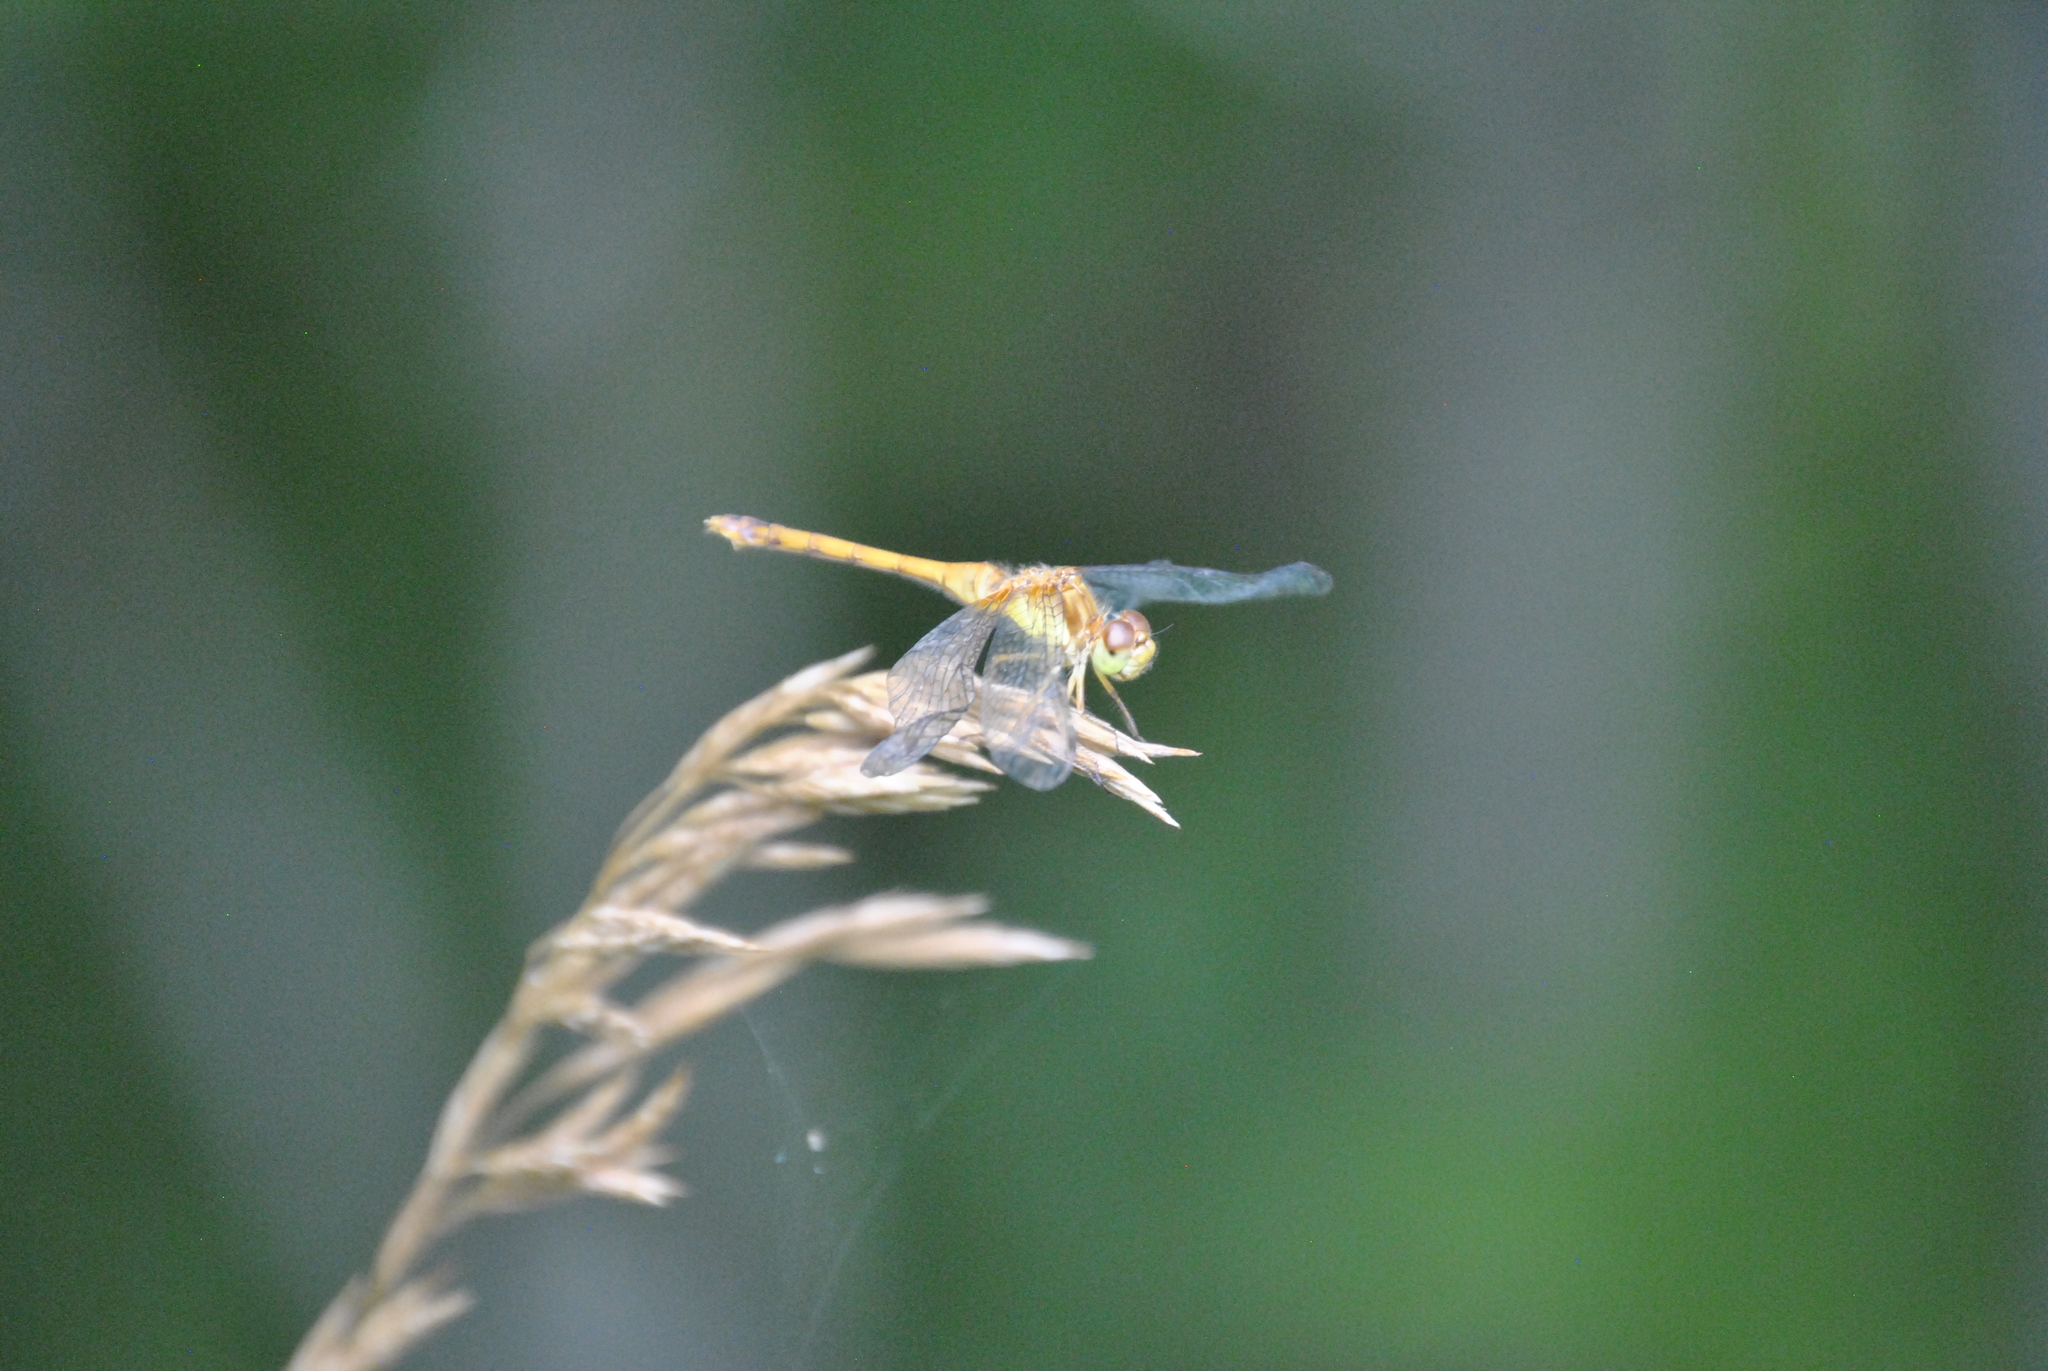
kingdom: Animalia
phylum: Arthropoda
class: Insecta
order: Odonata
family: Libellulidae
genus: Sympetrum
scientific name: Sympetrum vicinum
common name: Autumn meadowhawk
